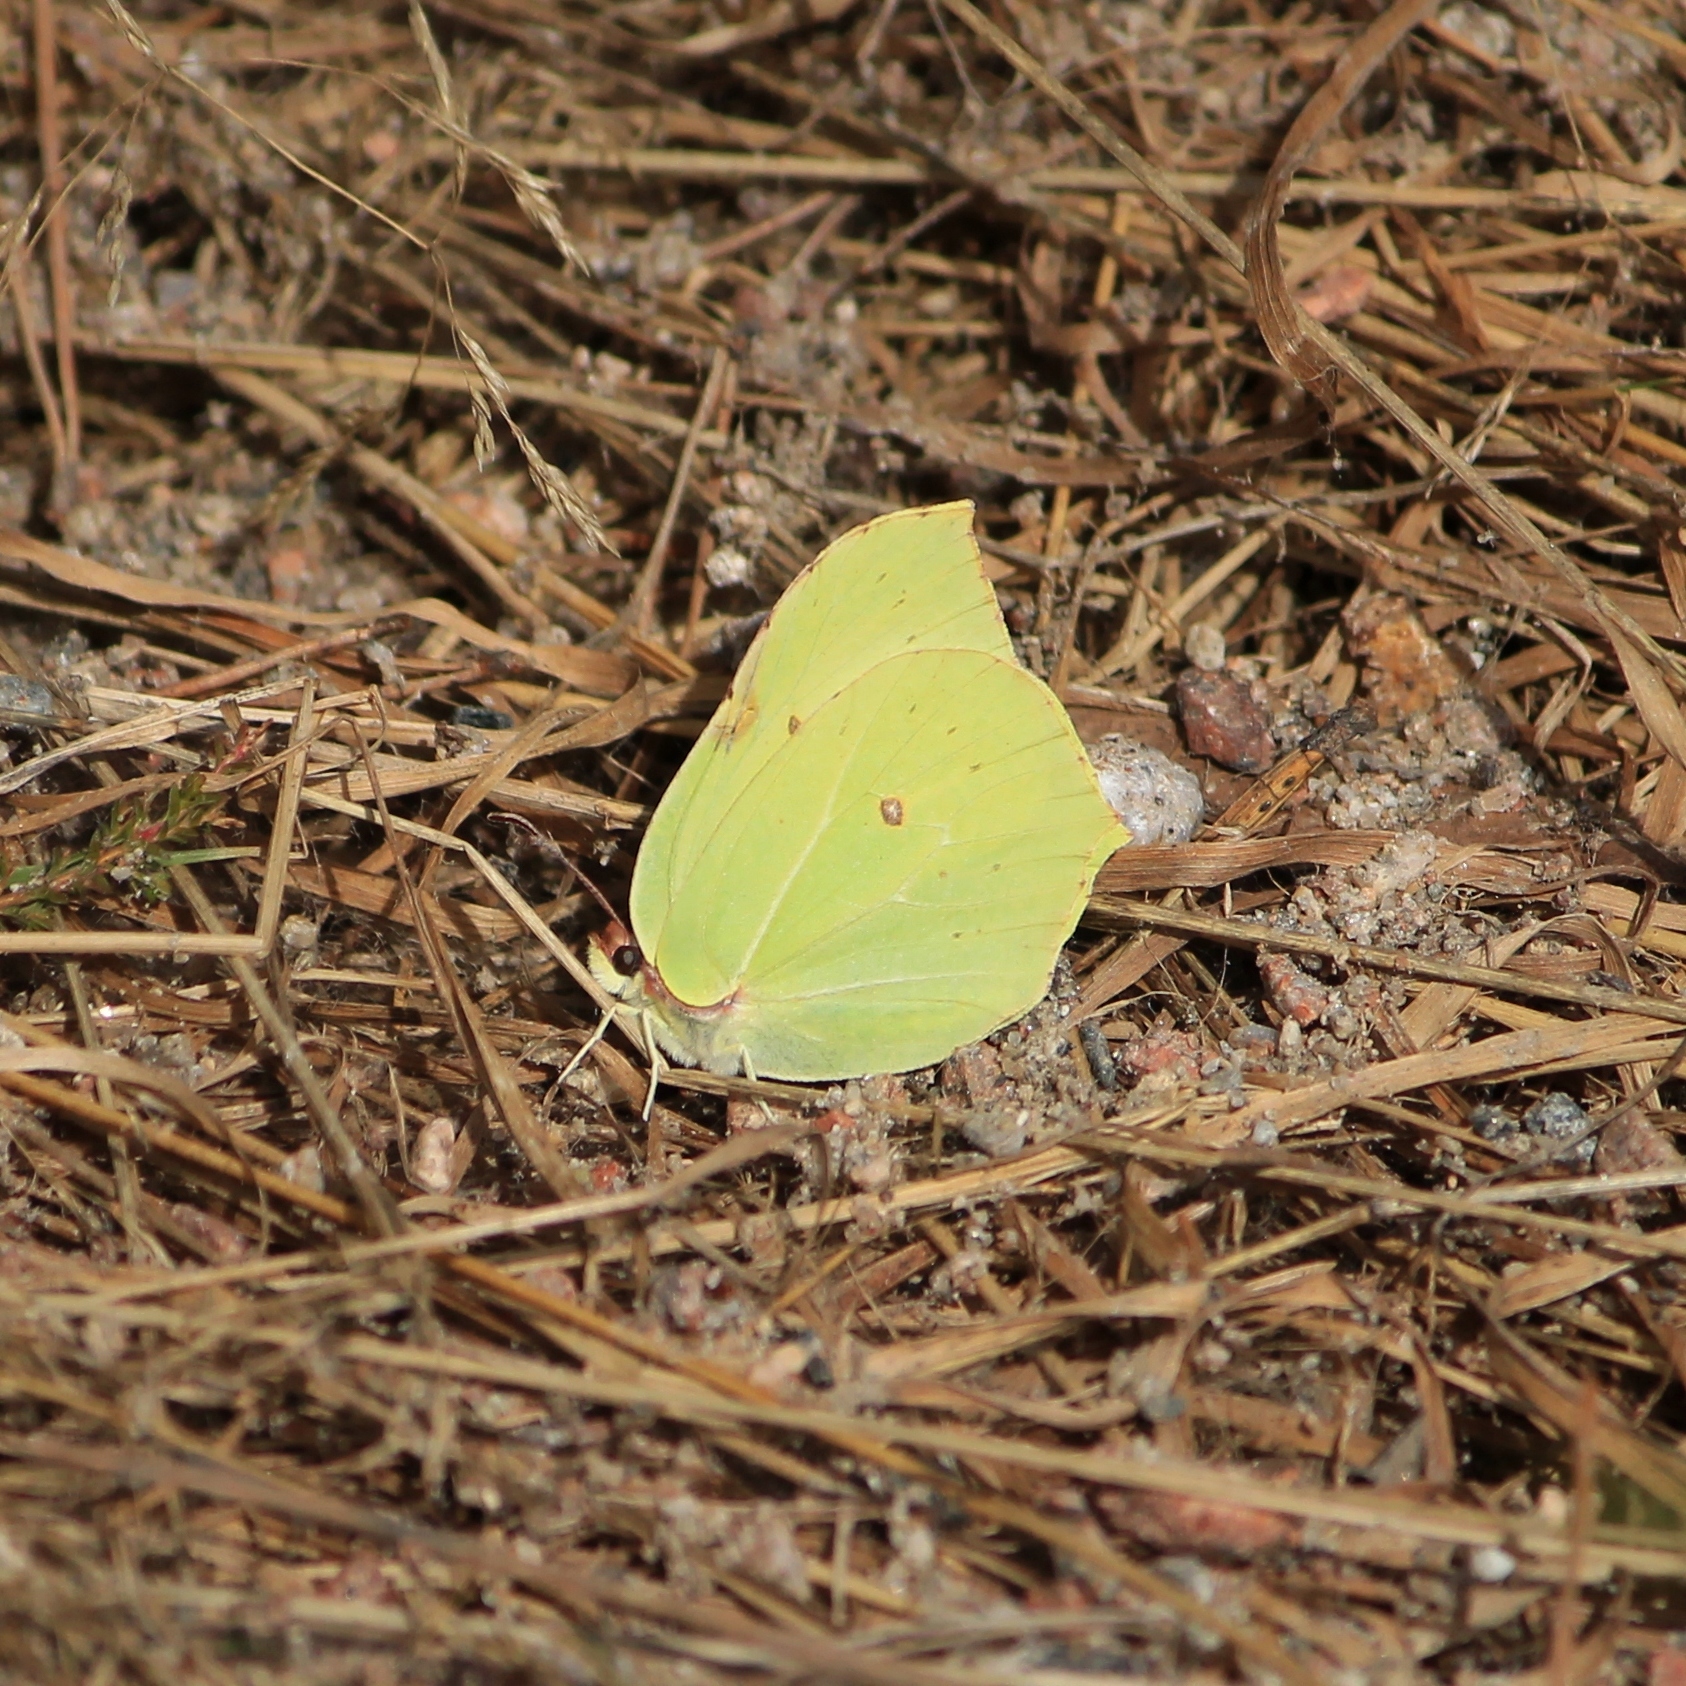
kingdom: Animalia
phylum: Arthropoda
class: Insecta
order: Lepidoptera
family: Pieridae
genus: Gonepteryx
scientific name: Gonepteryx rhamni
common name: Brimstone
